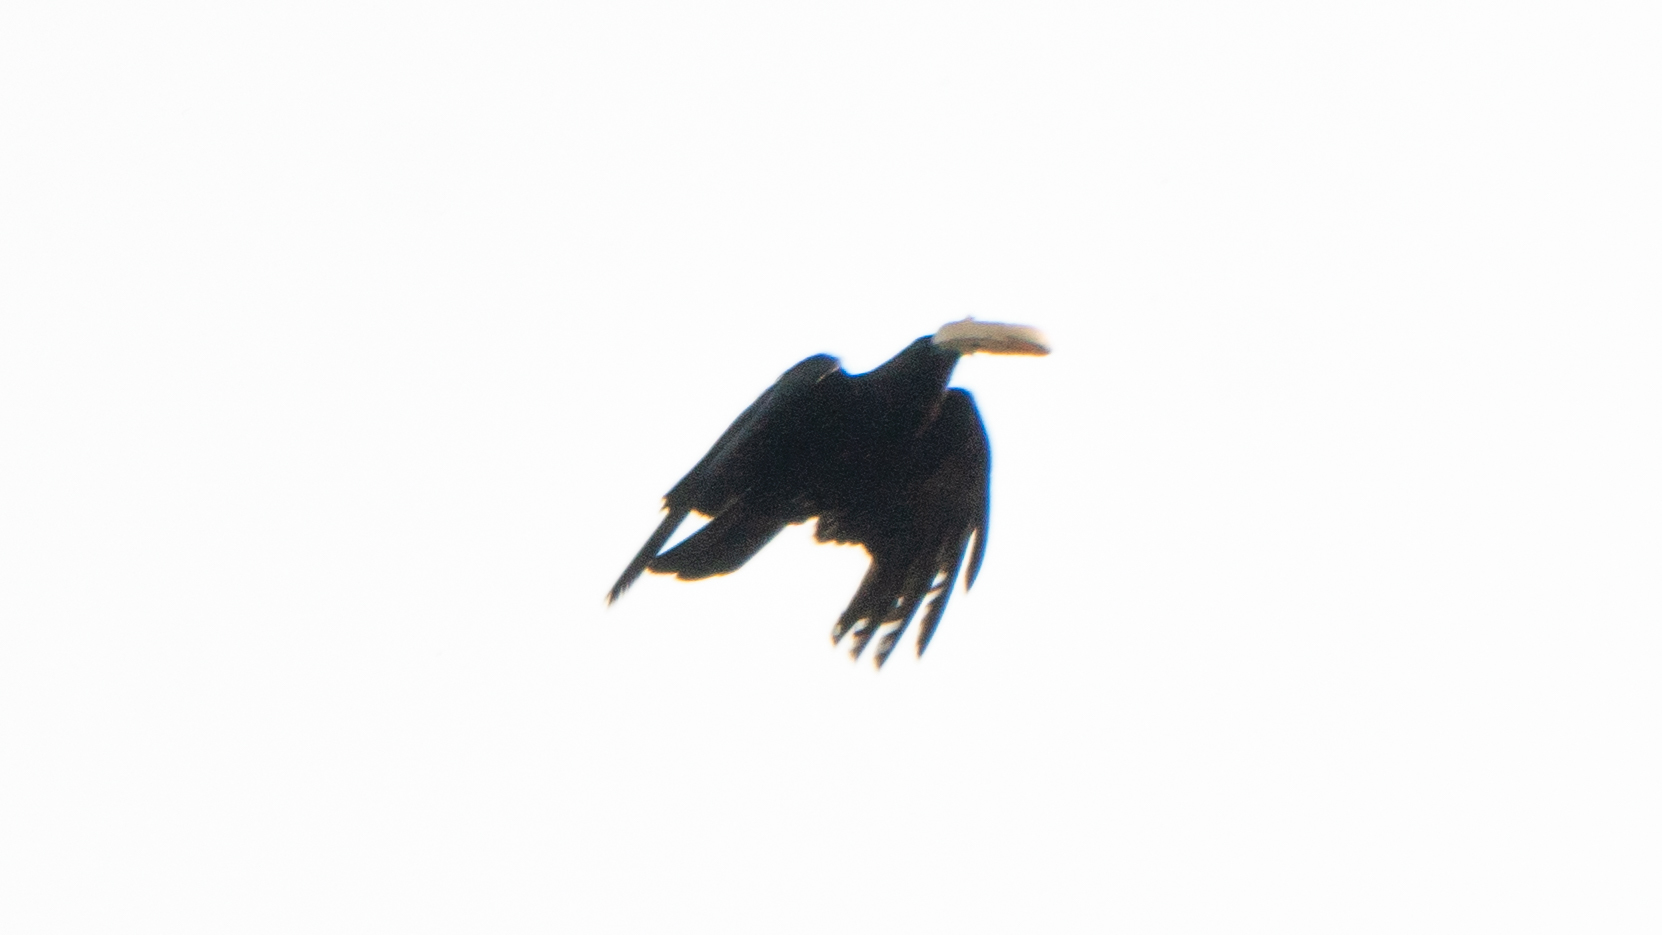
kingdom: Animalia
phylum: Chordata
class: Aves
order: Passeriformes
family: Corvidae
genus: Corvus
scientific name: Corvus brachyrhynchos
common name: American crow
